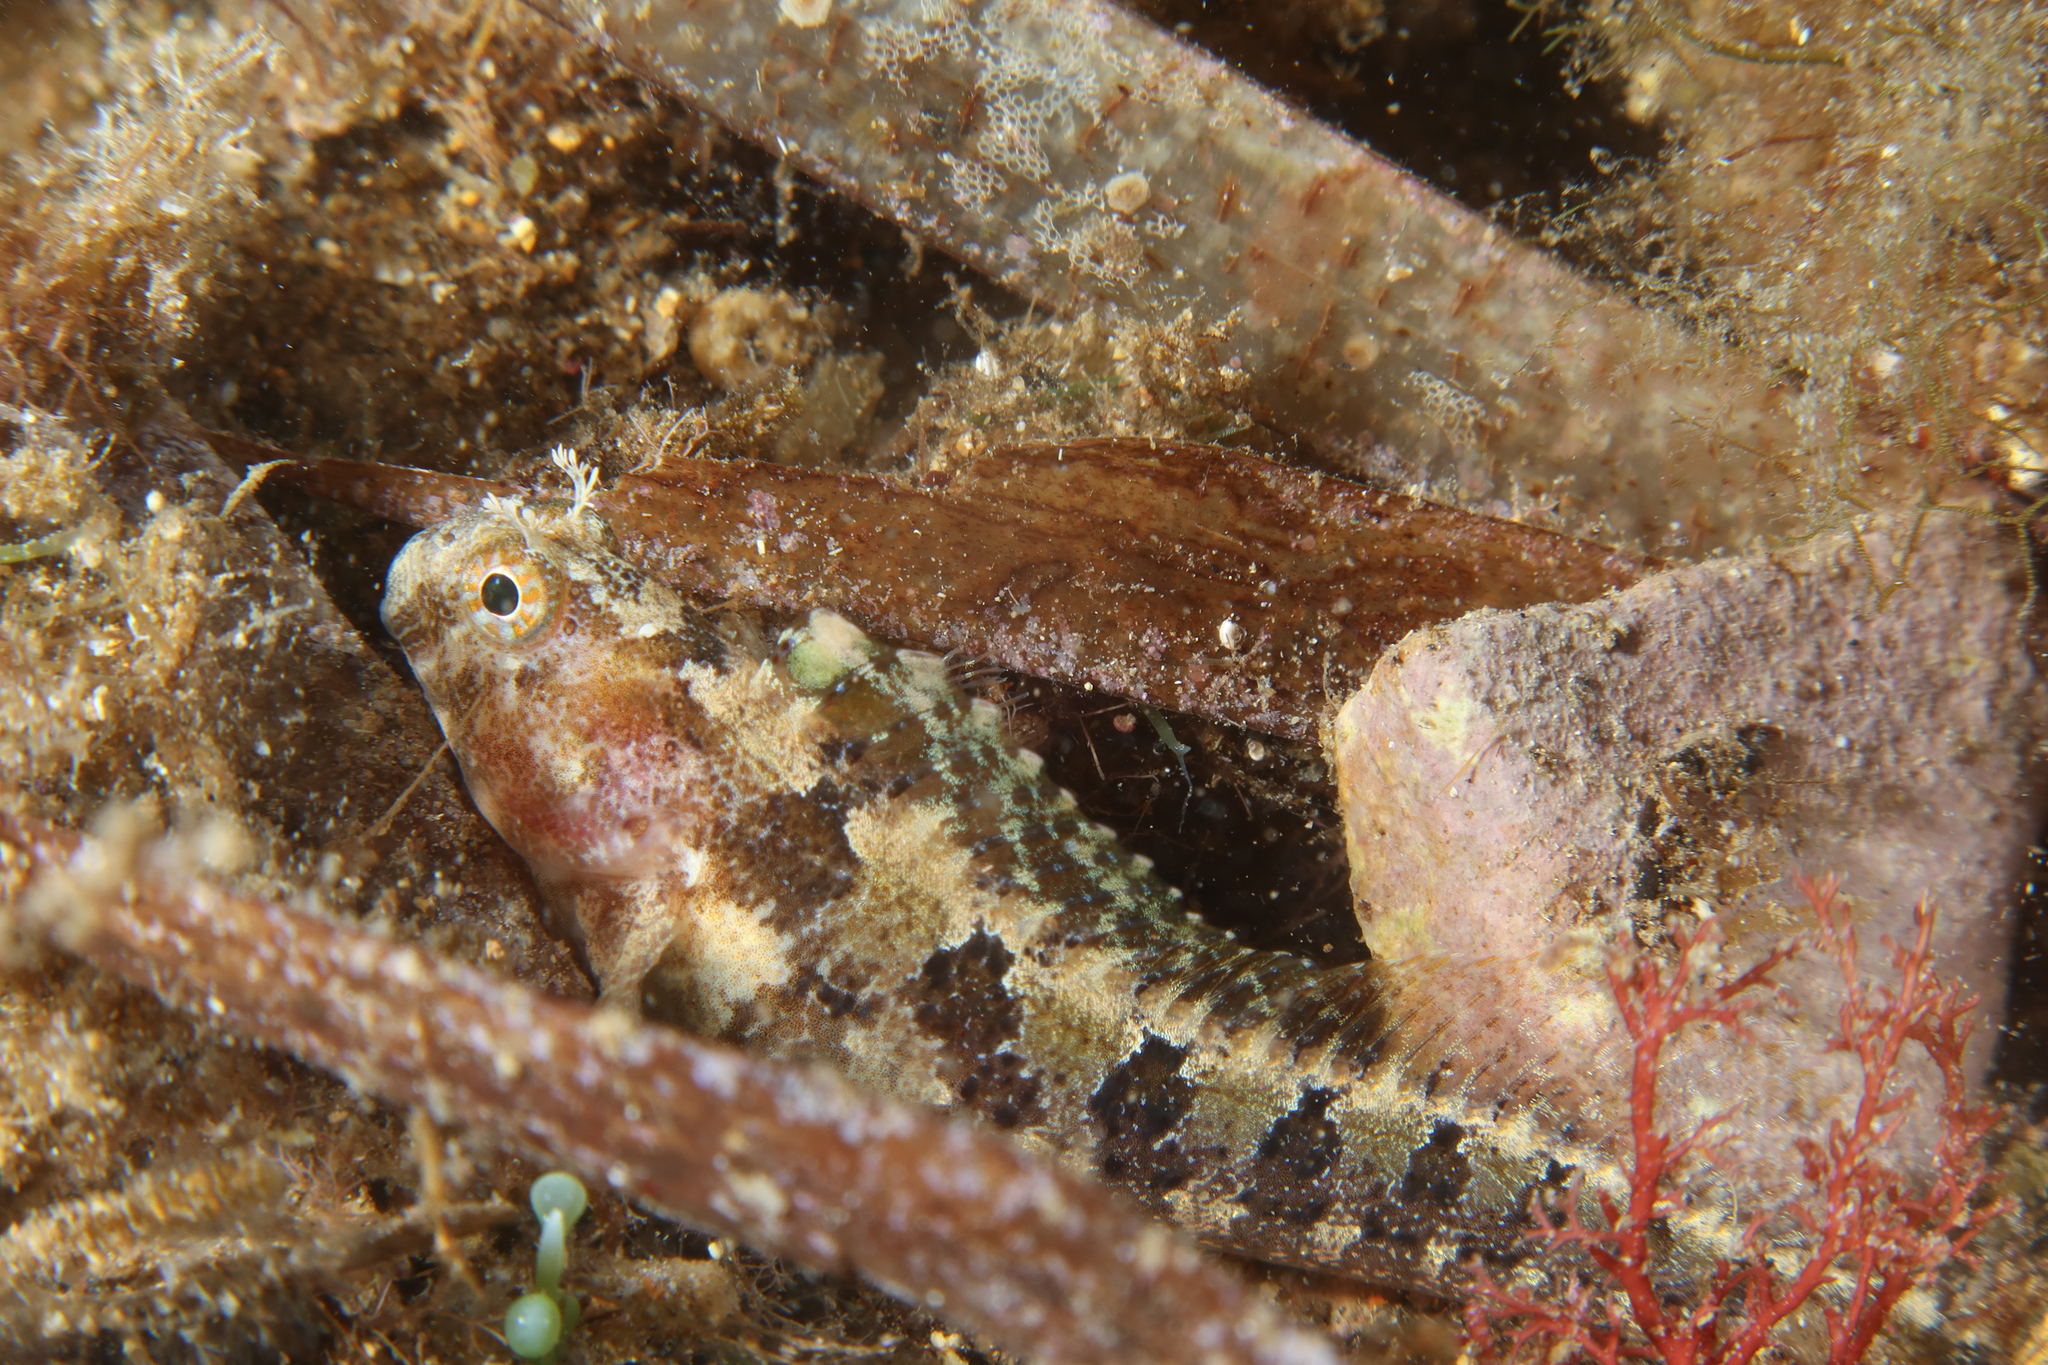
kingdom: Animalia
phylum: Chordata
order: Perciformes
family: Blenniidae
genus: Parablennius
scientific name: Parablennius tentacularis
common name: Tentacled blenny
